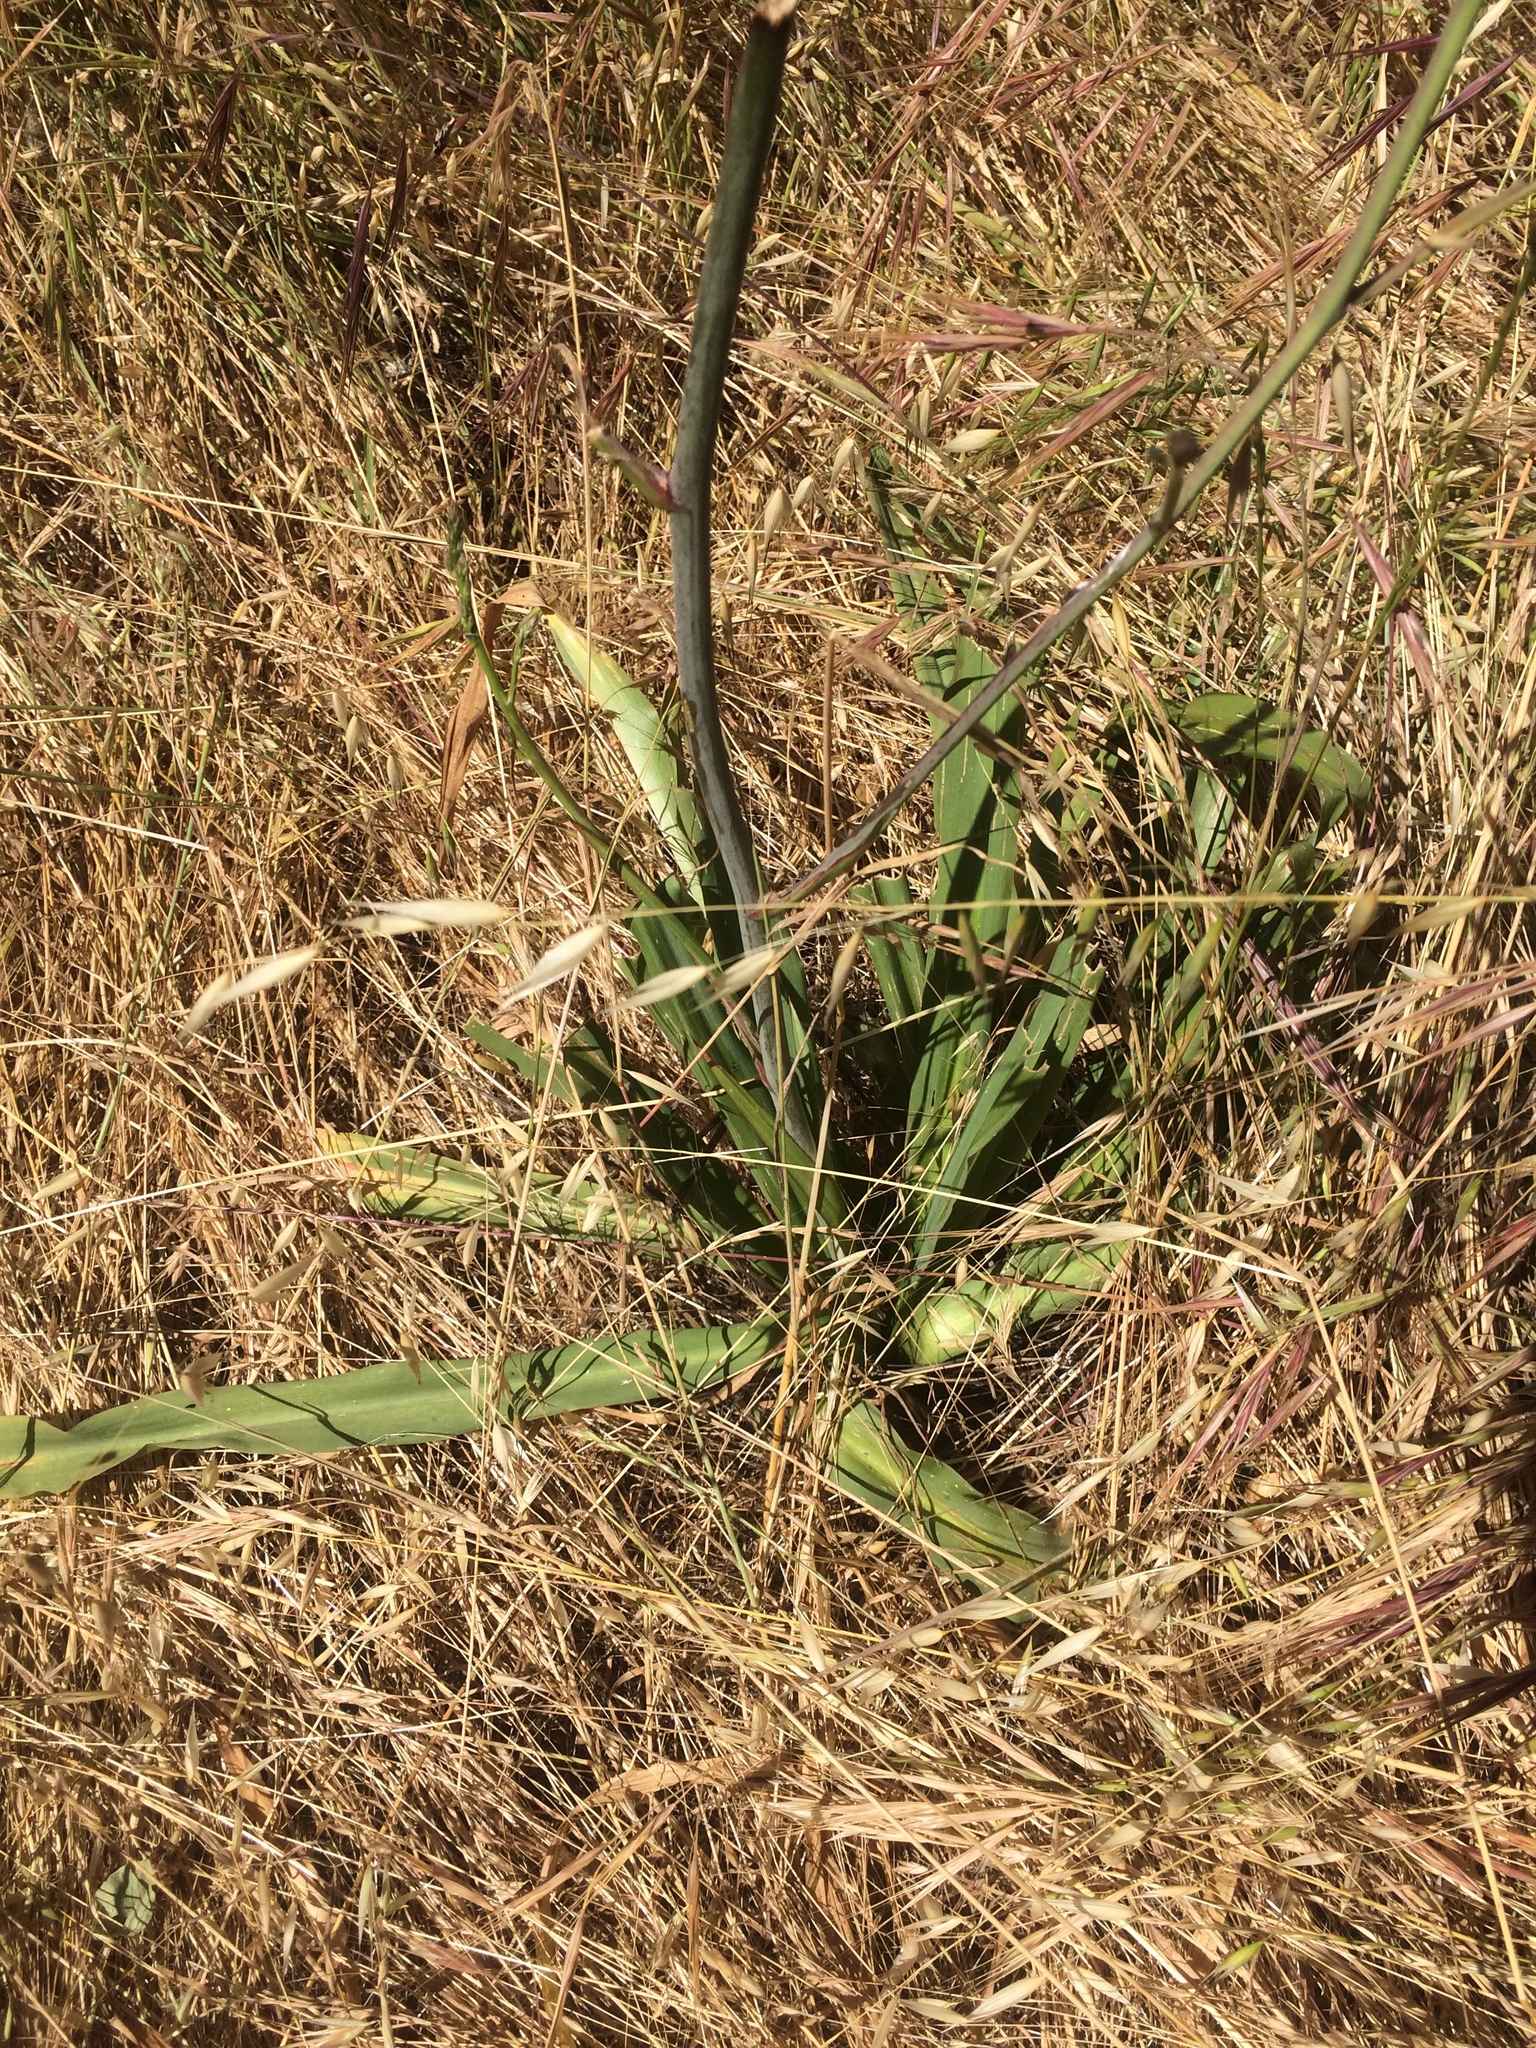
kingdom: Plantae
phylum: Tracheophyta
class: Liliopsida
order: Asparagales
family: Asparagaceae
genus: Chlorogalum
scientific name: Chlorogalum pomeridianum
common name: Amole
